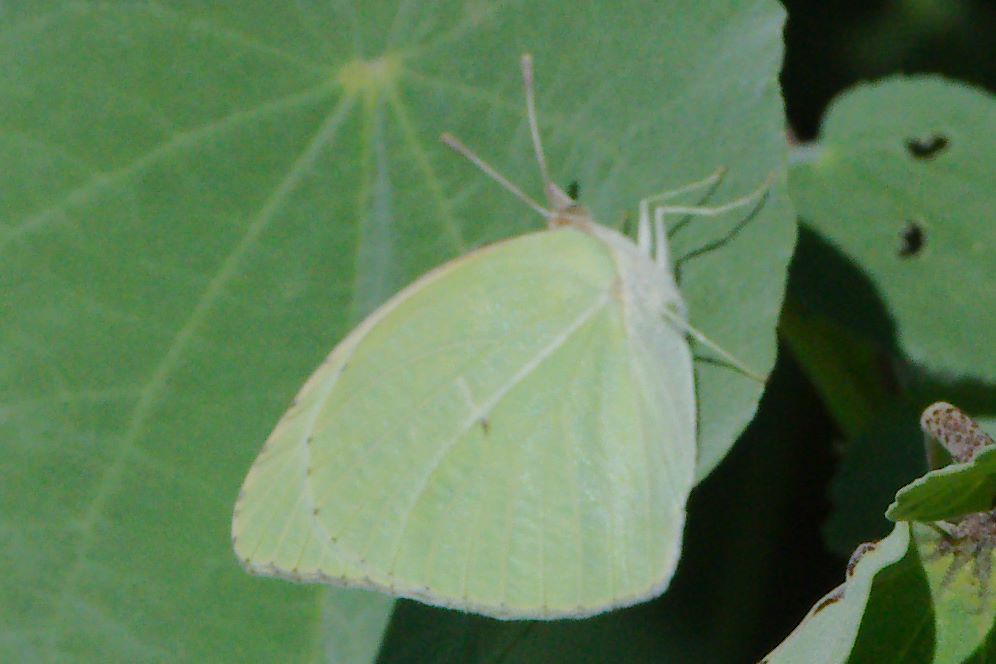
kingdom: Animalia
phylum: Arthropoda
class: Insecta
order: Lepidoptera
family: Pieridae
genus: Kricogonia
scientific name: Kricogonia lyside
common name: Guayacan sulphur,
